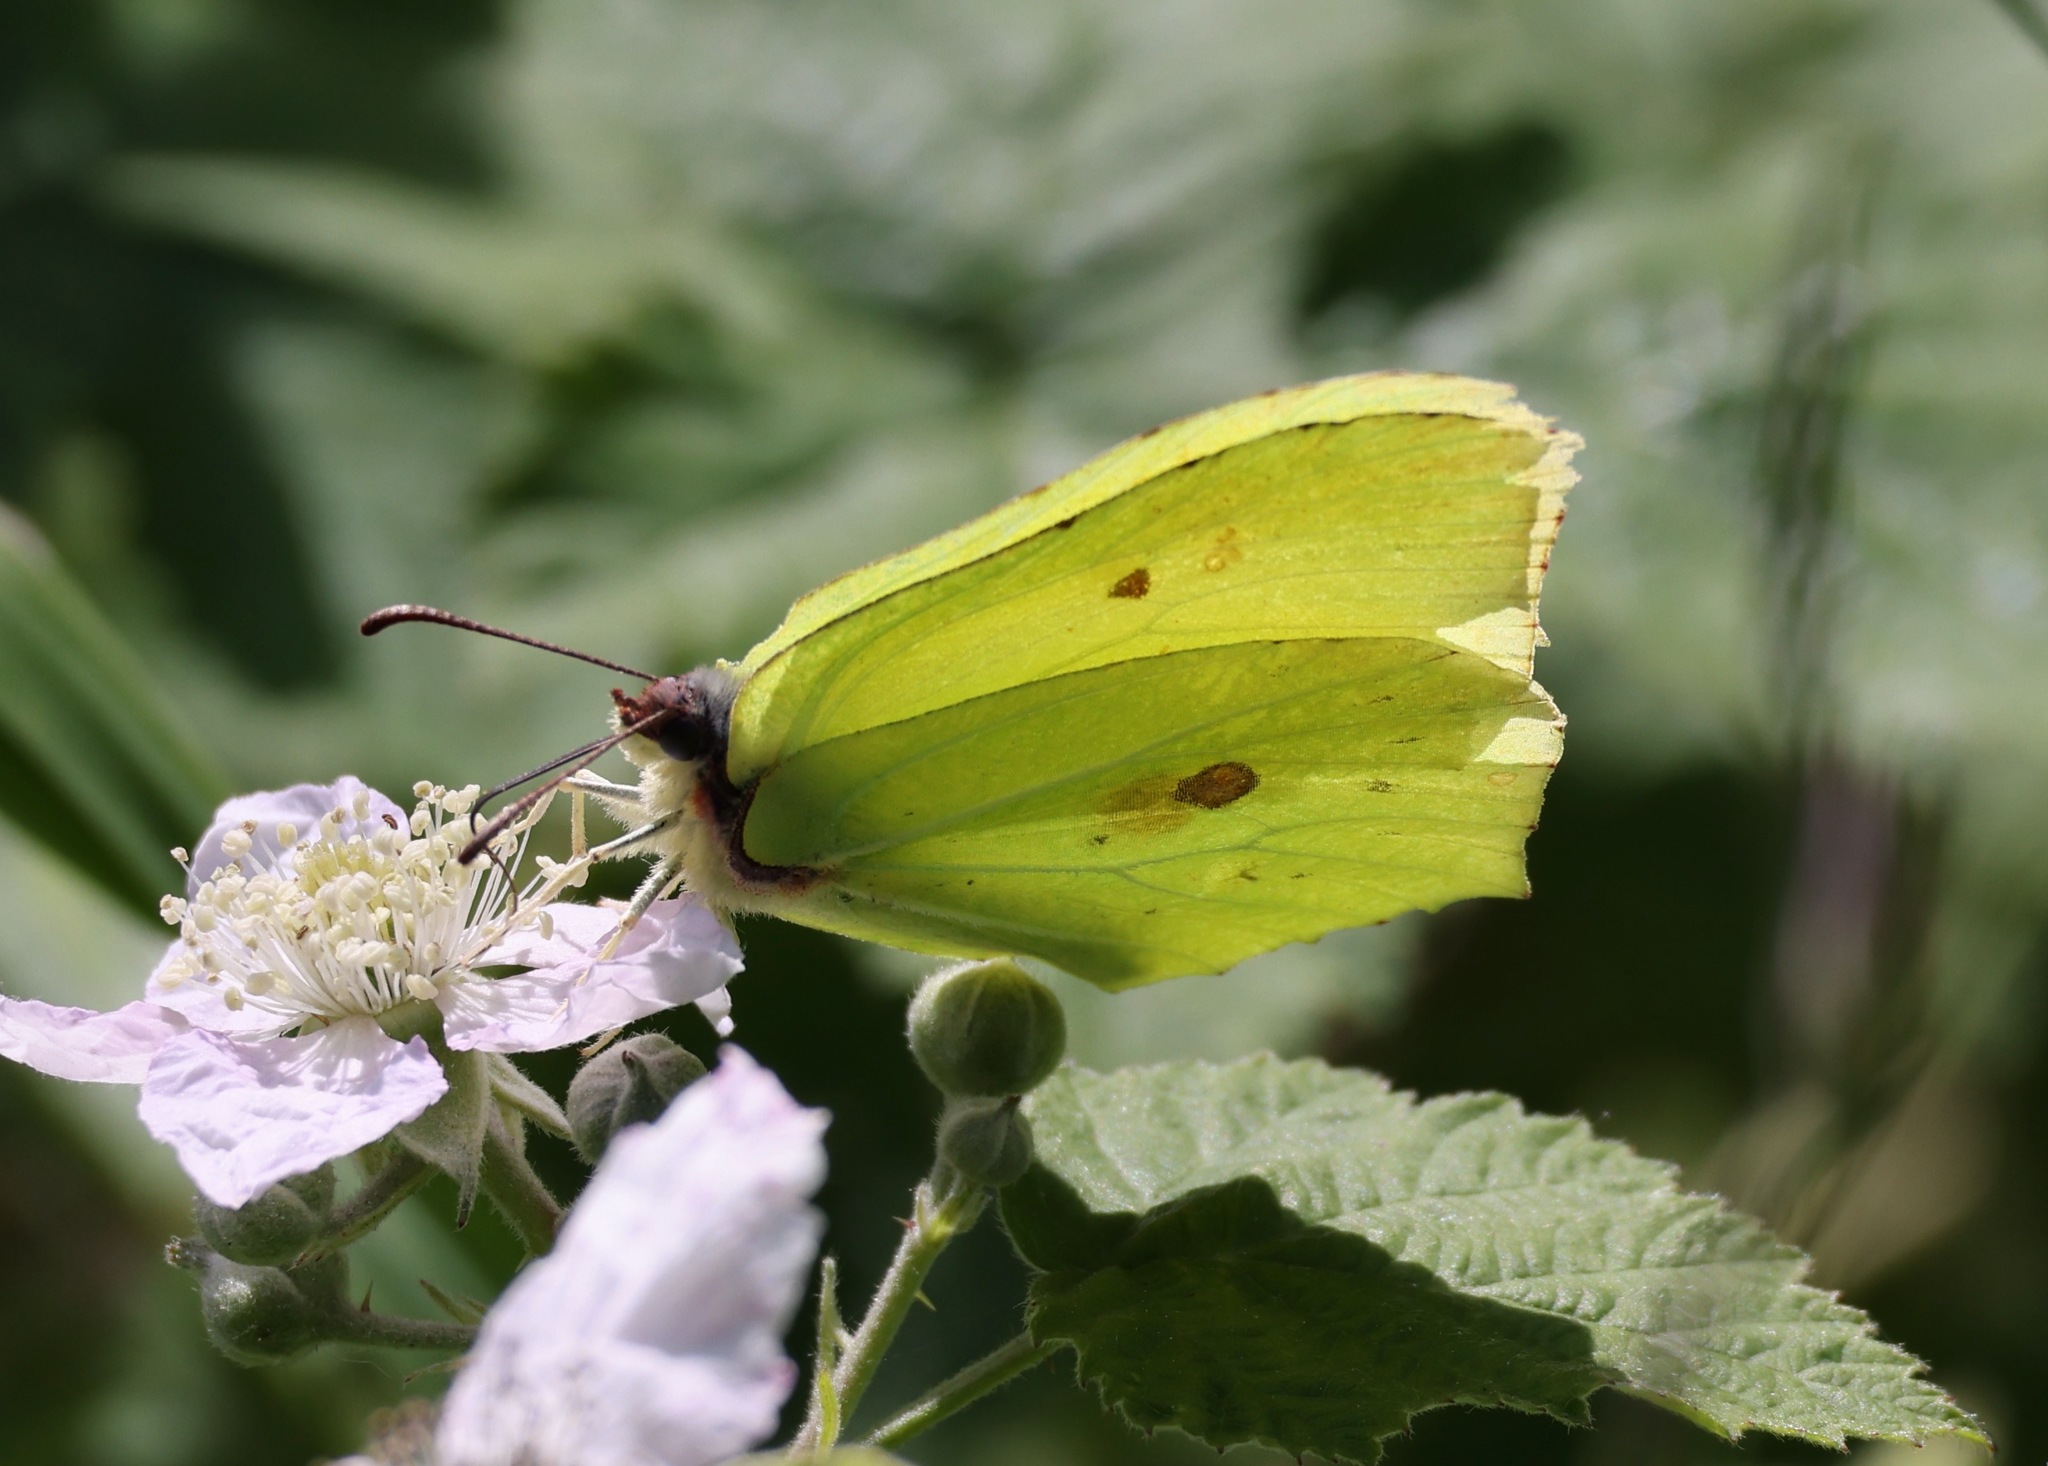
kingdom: Animalia
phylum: Arthropoda
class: Insecta
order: Lepidoptera
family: Pieridae
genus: Gonepteryx
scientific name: Gonepteryx rhamni
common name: Brimstone
